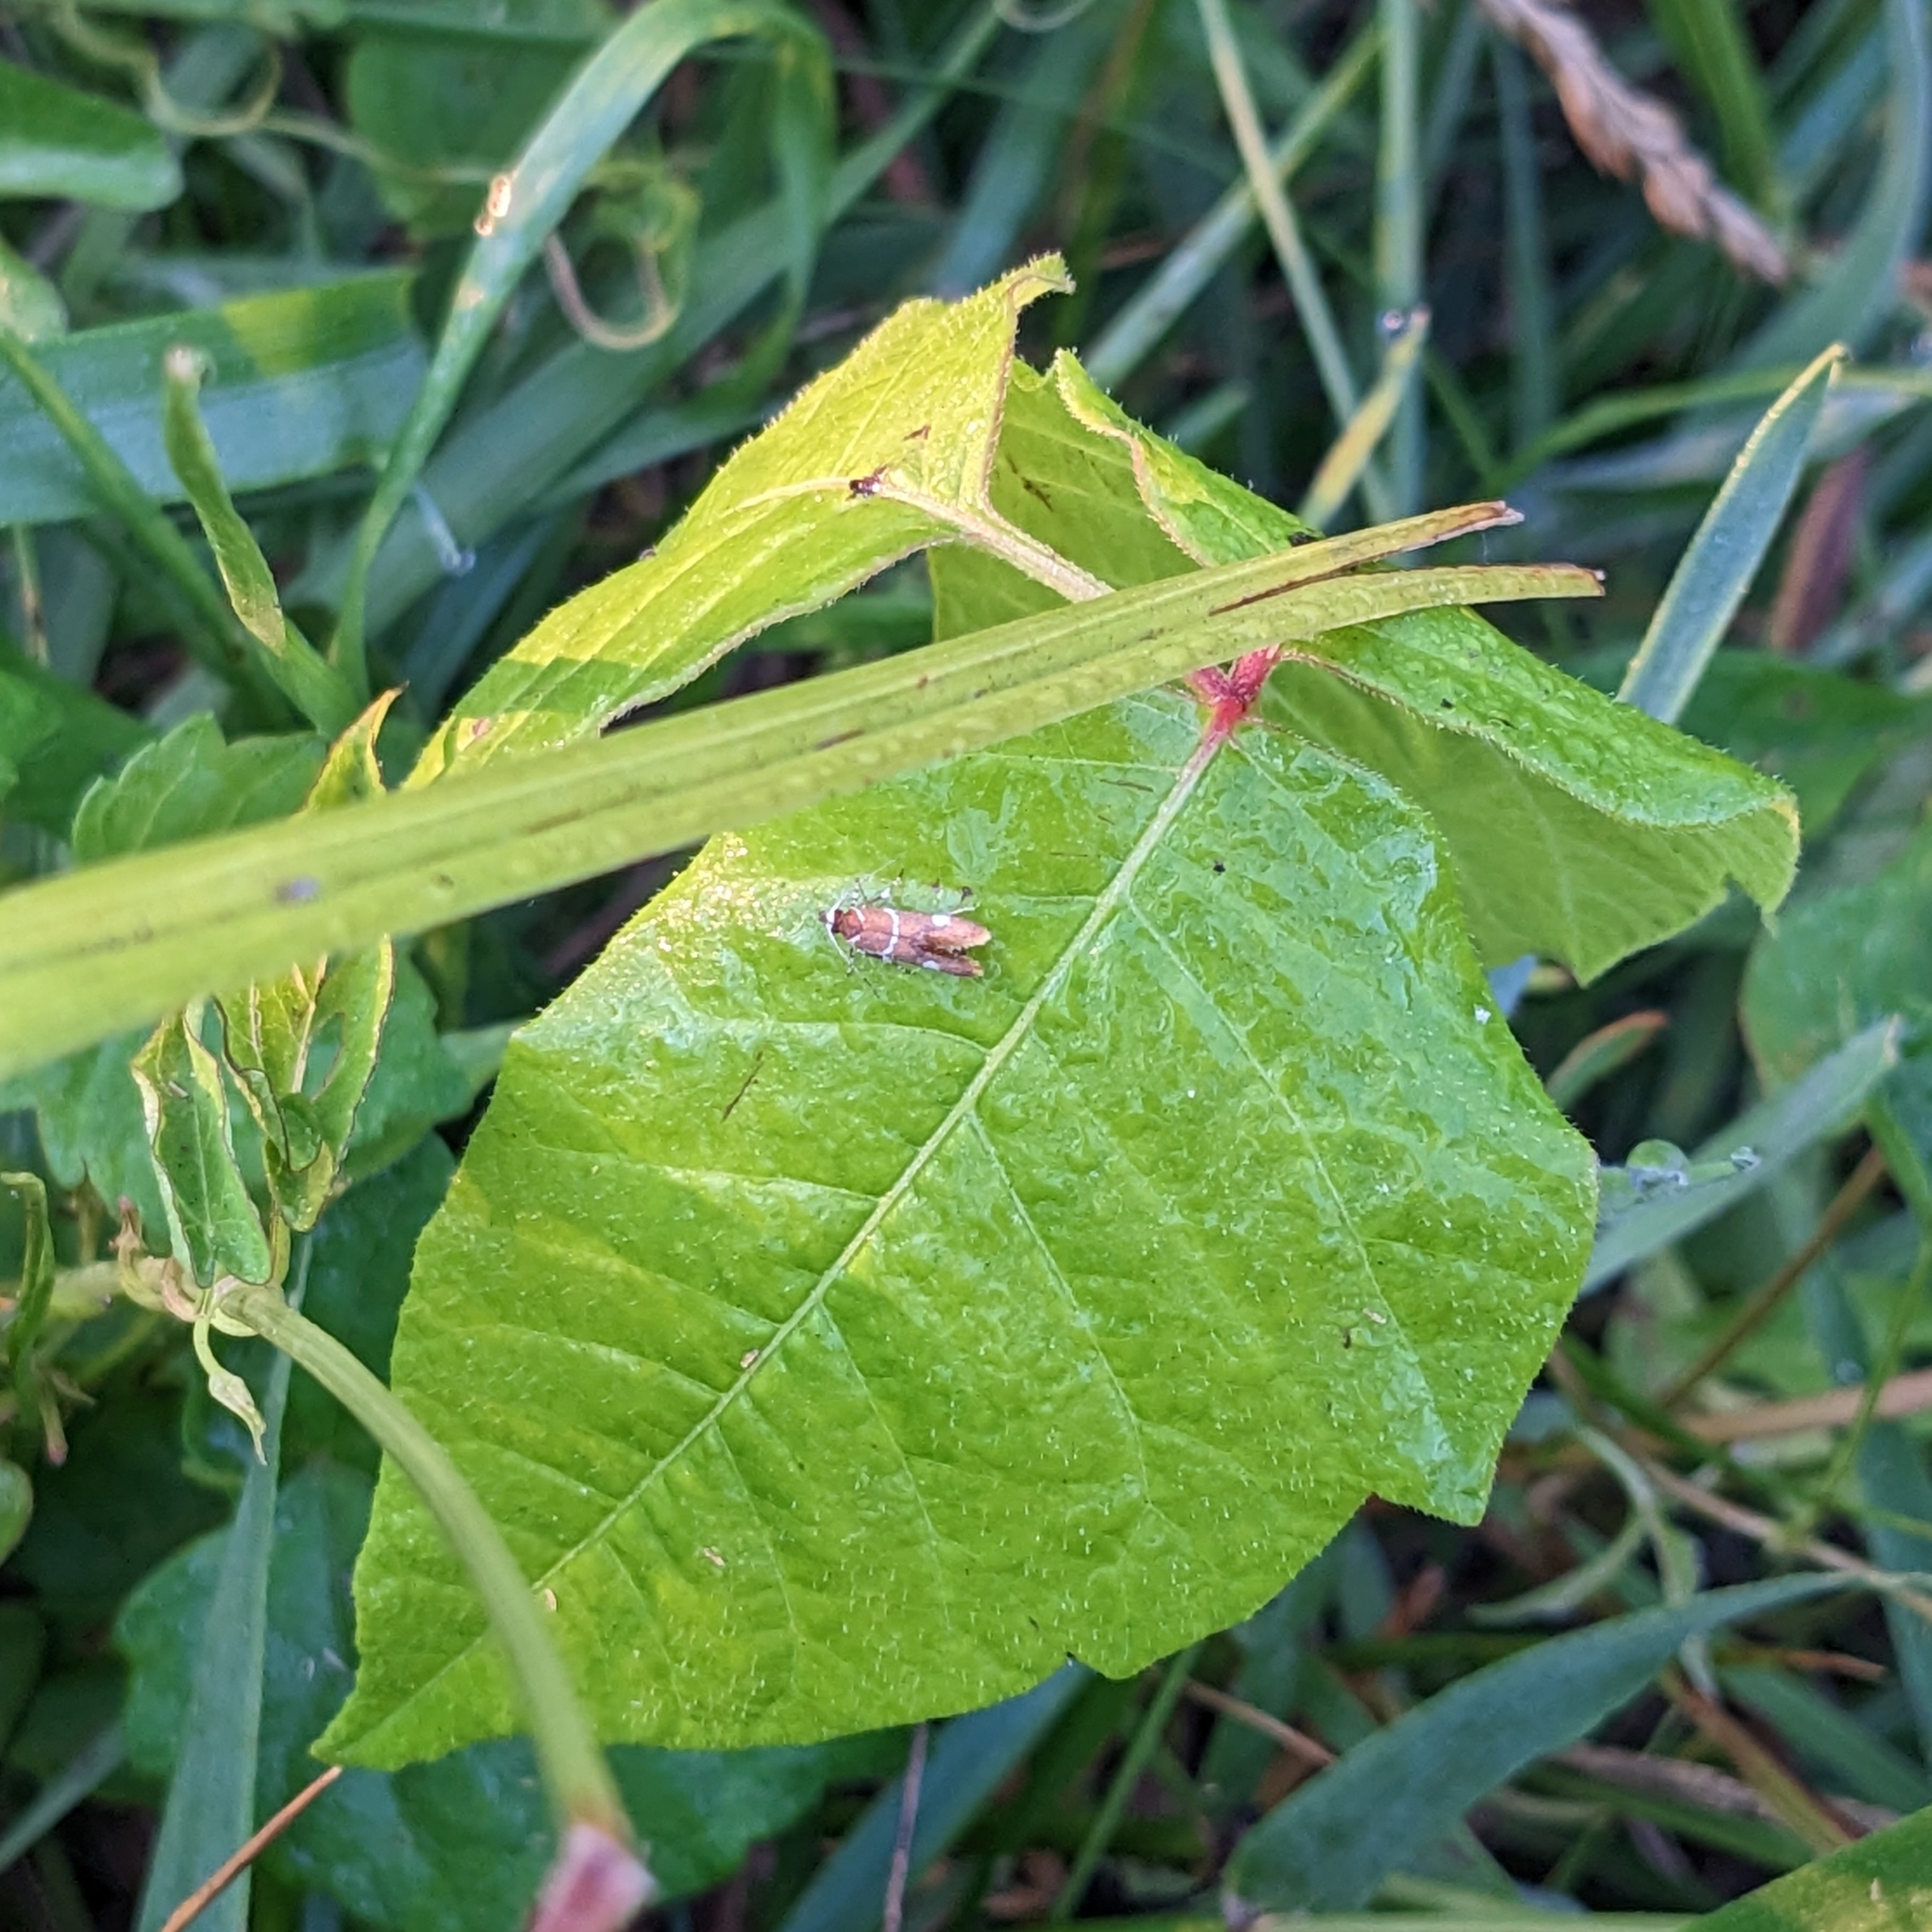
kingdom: Animalia
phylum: Arthropoda
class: Insecta
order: Lepidoptera
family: Oecophoridae
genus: Promalactis
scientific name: Promalactis suzukiella
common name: Moth
